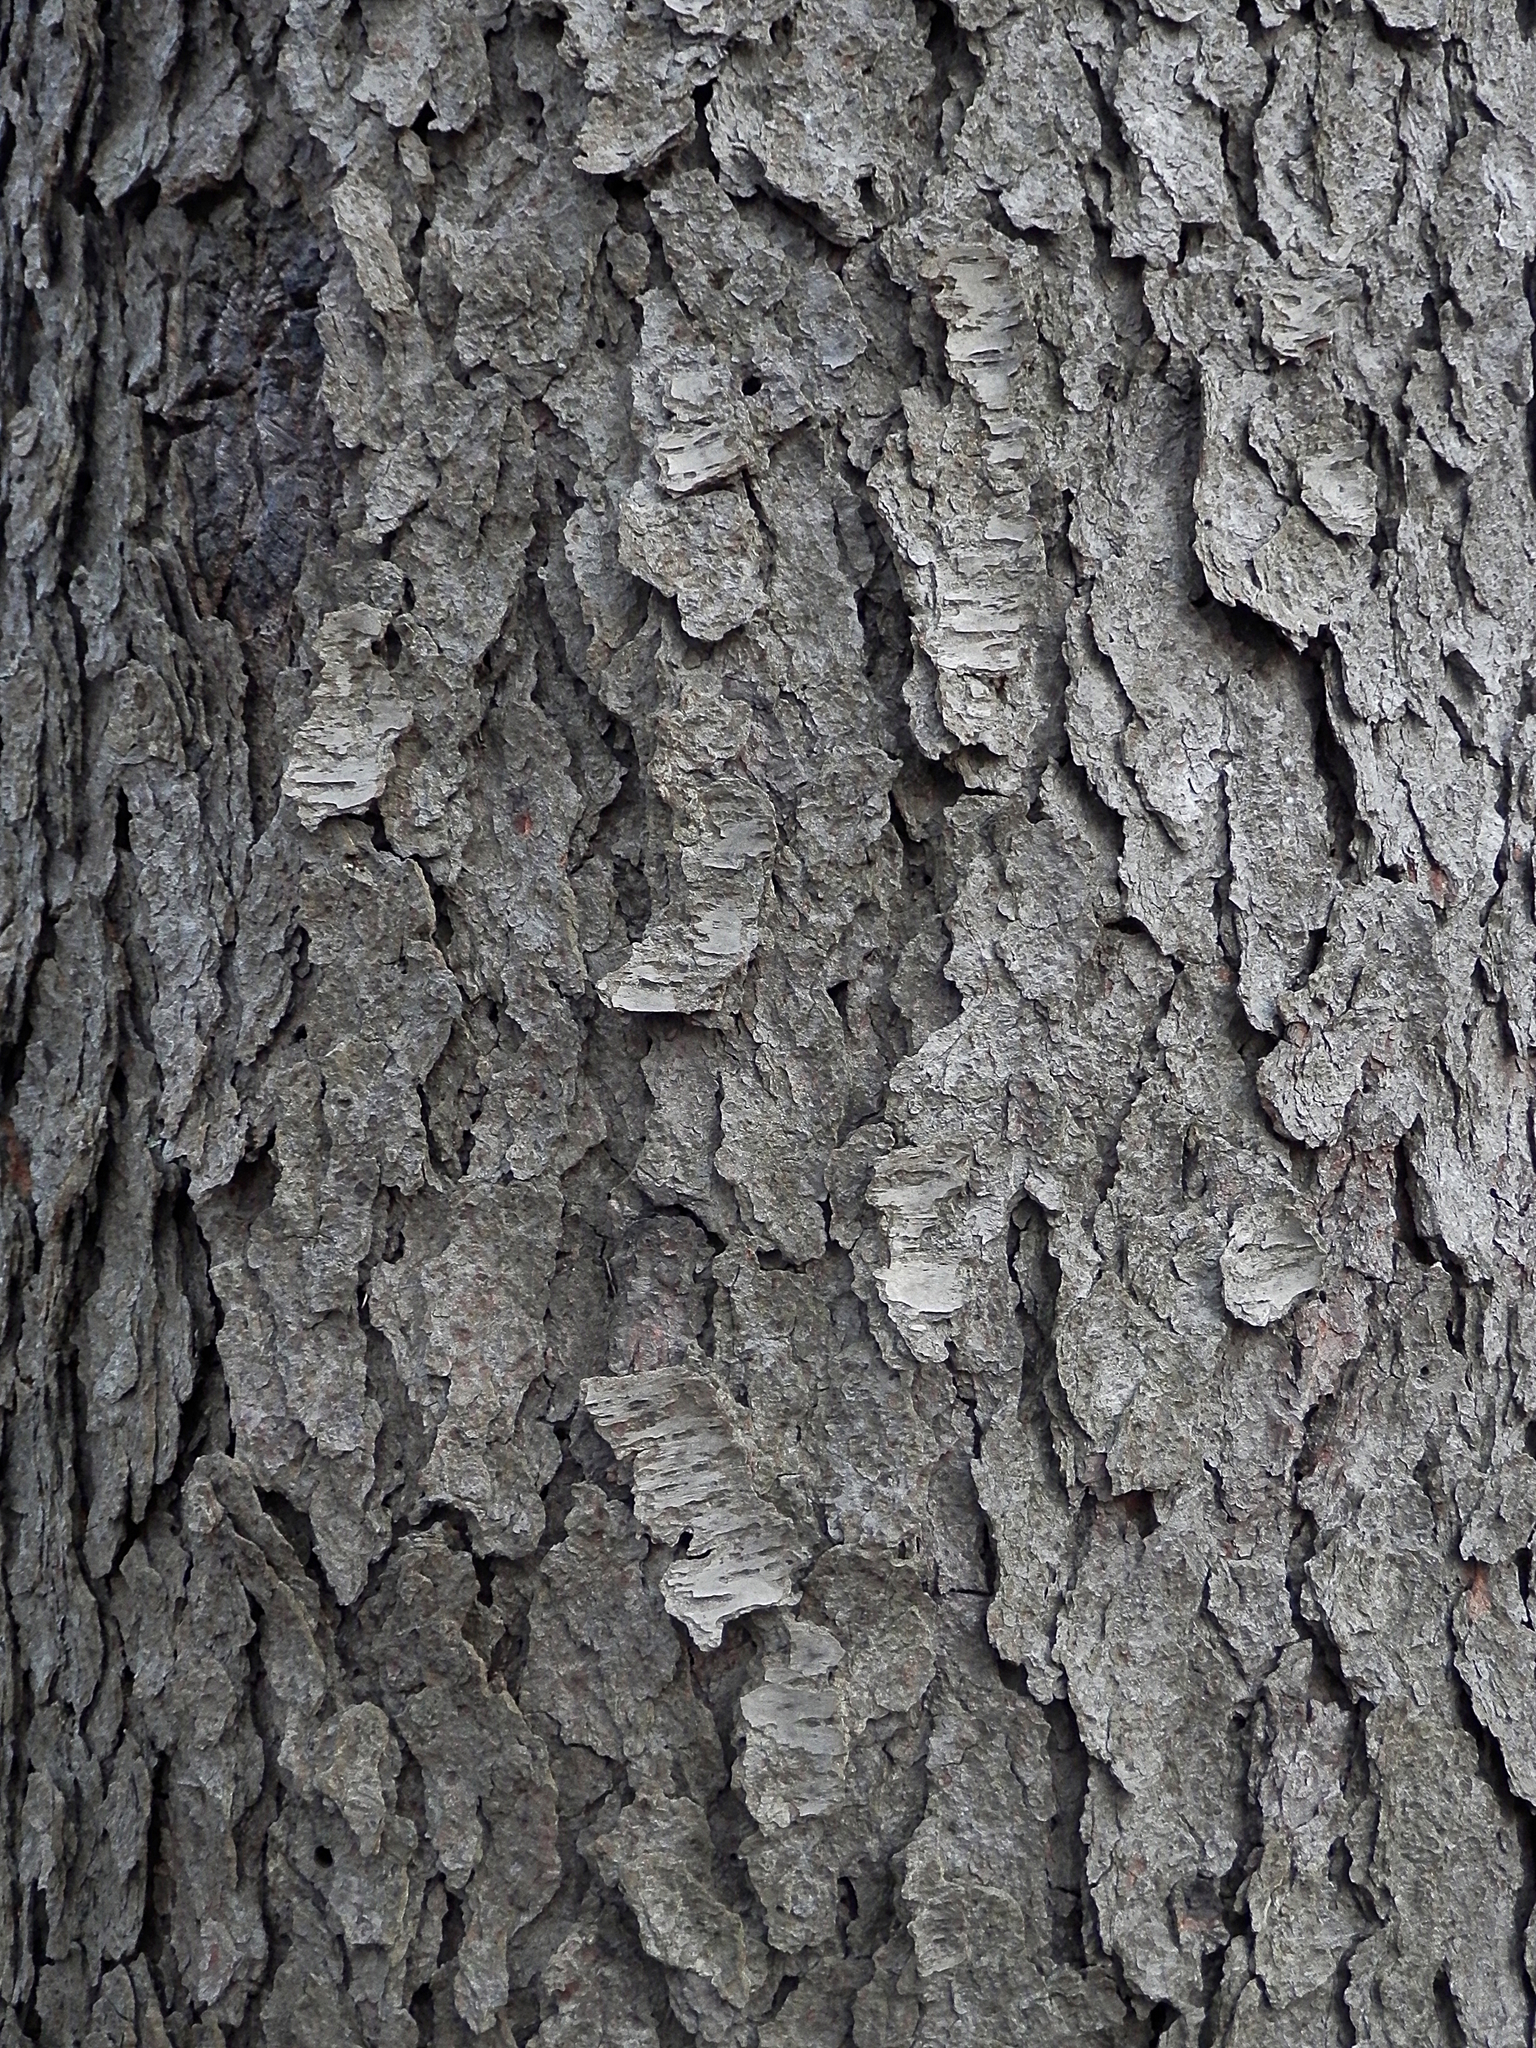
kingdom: Plantae
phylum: Tracheophyta
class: Magnoliopsida
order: Rosales
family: Rosaceae
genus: Prunus
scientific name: Prunus serotina
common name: Black cherry
